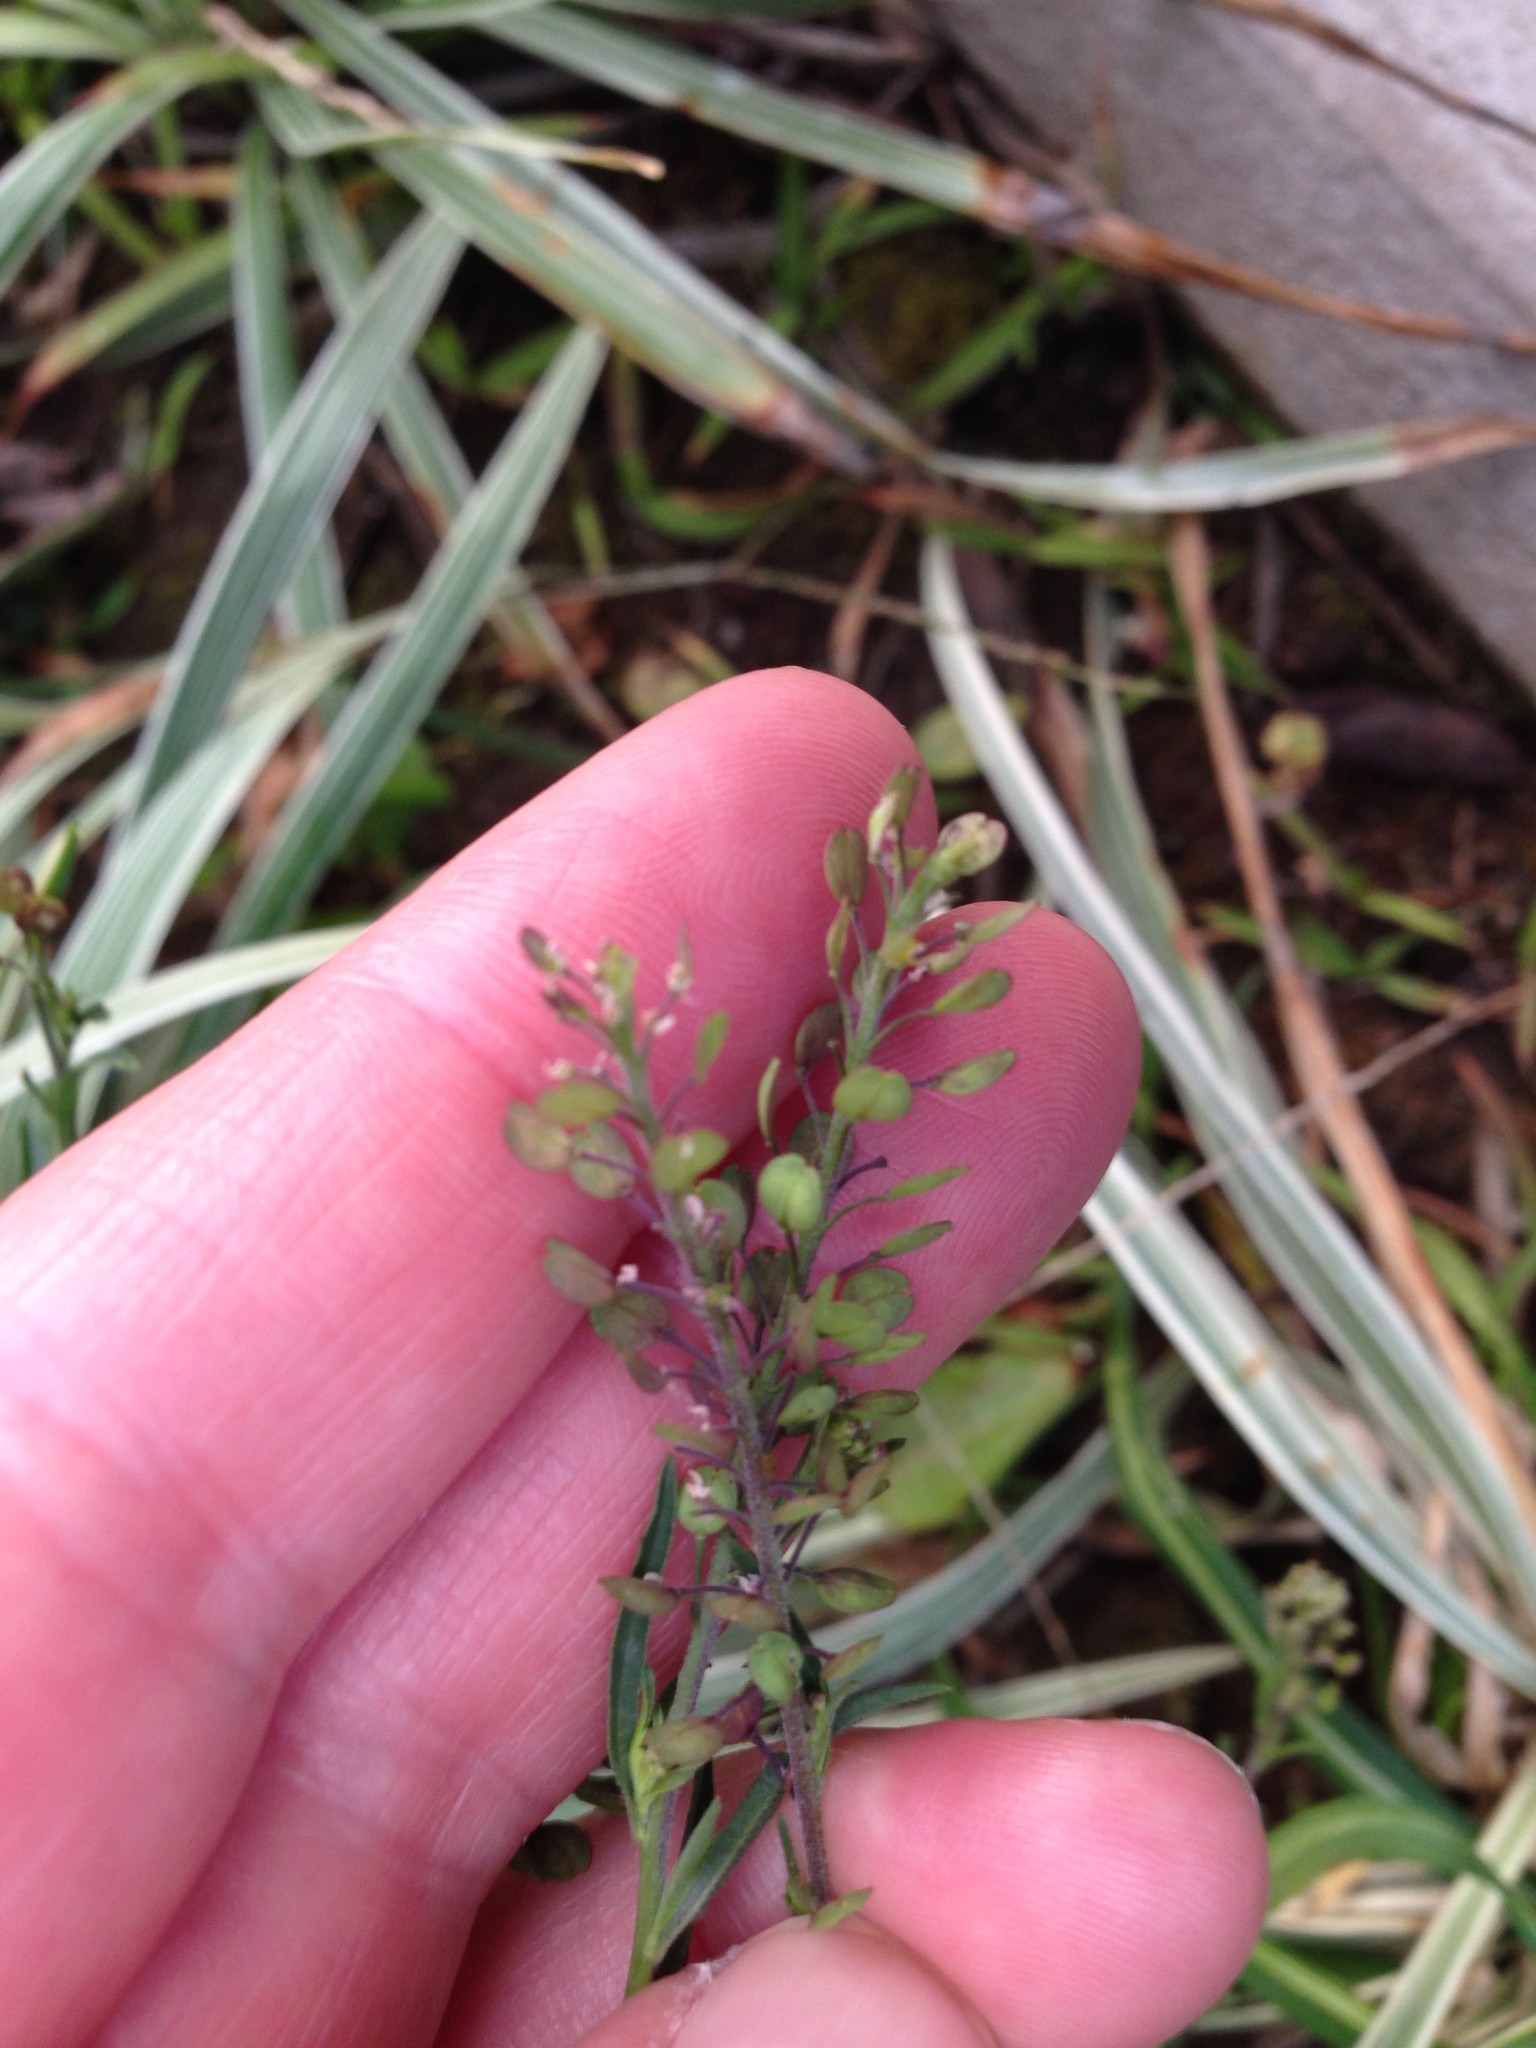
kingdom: Plantae
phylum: Tracheophyta
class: Magnoliopsida
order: Brassicales
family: Brassicaceae
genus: Lepidium
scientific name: Lepidium costaricense
